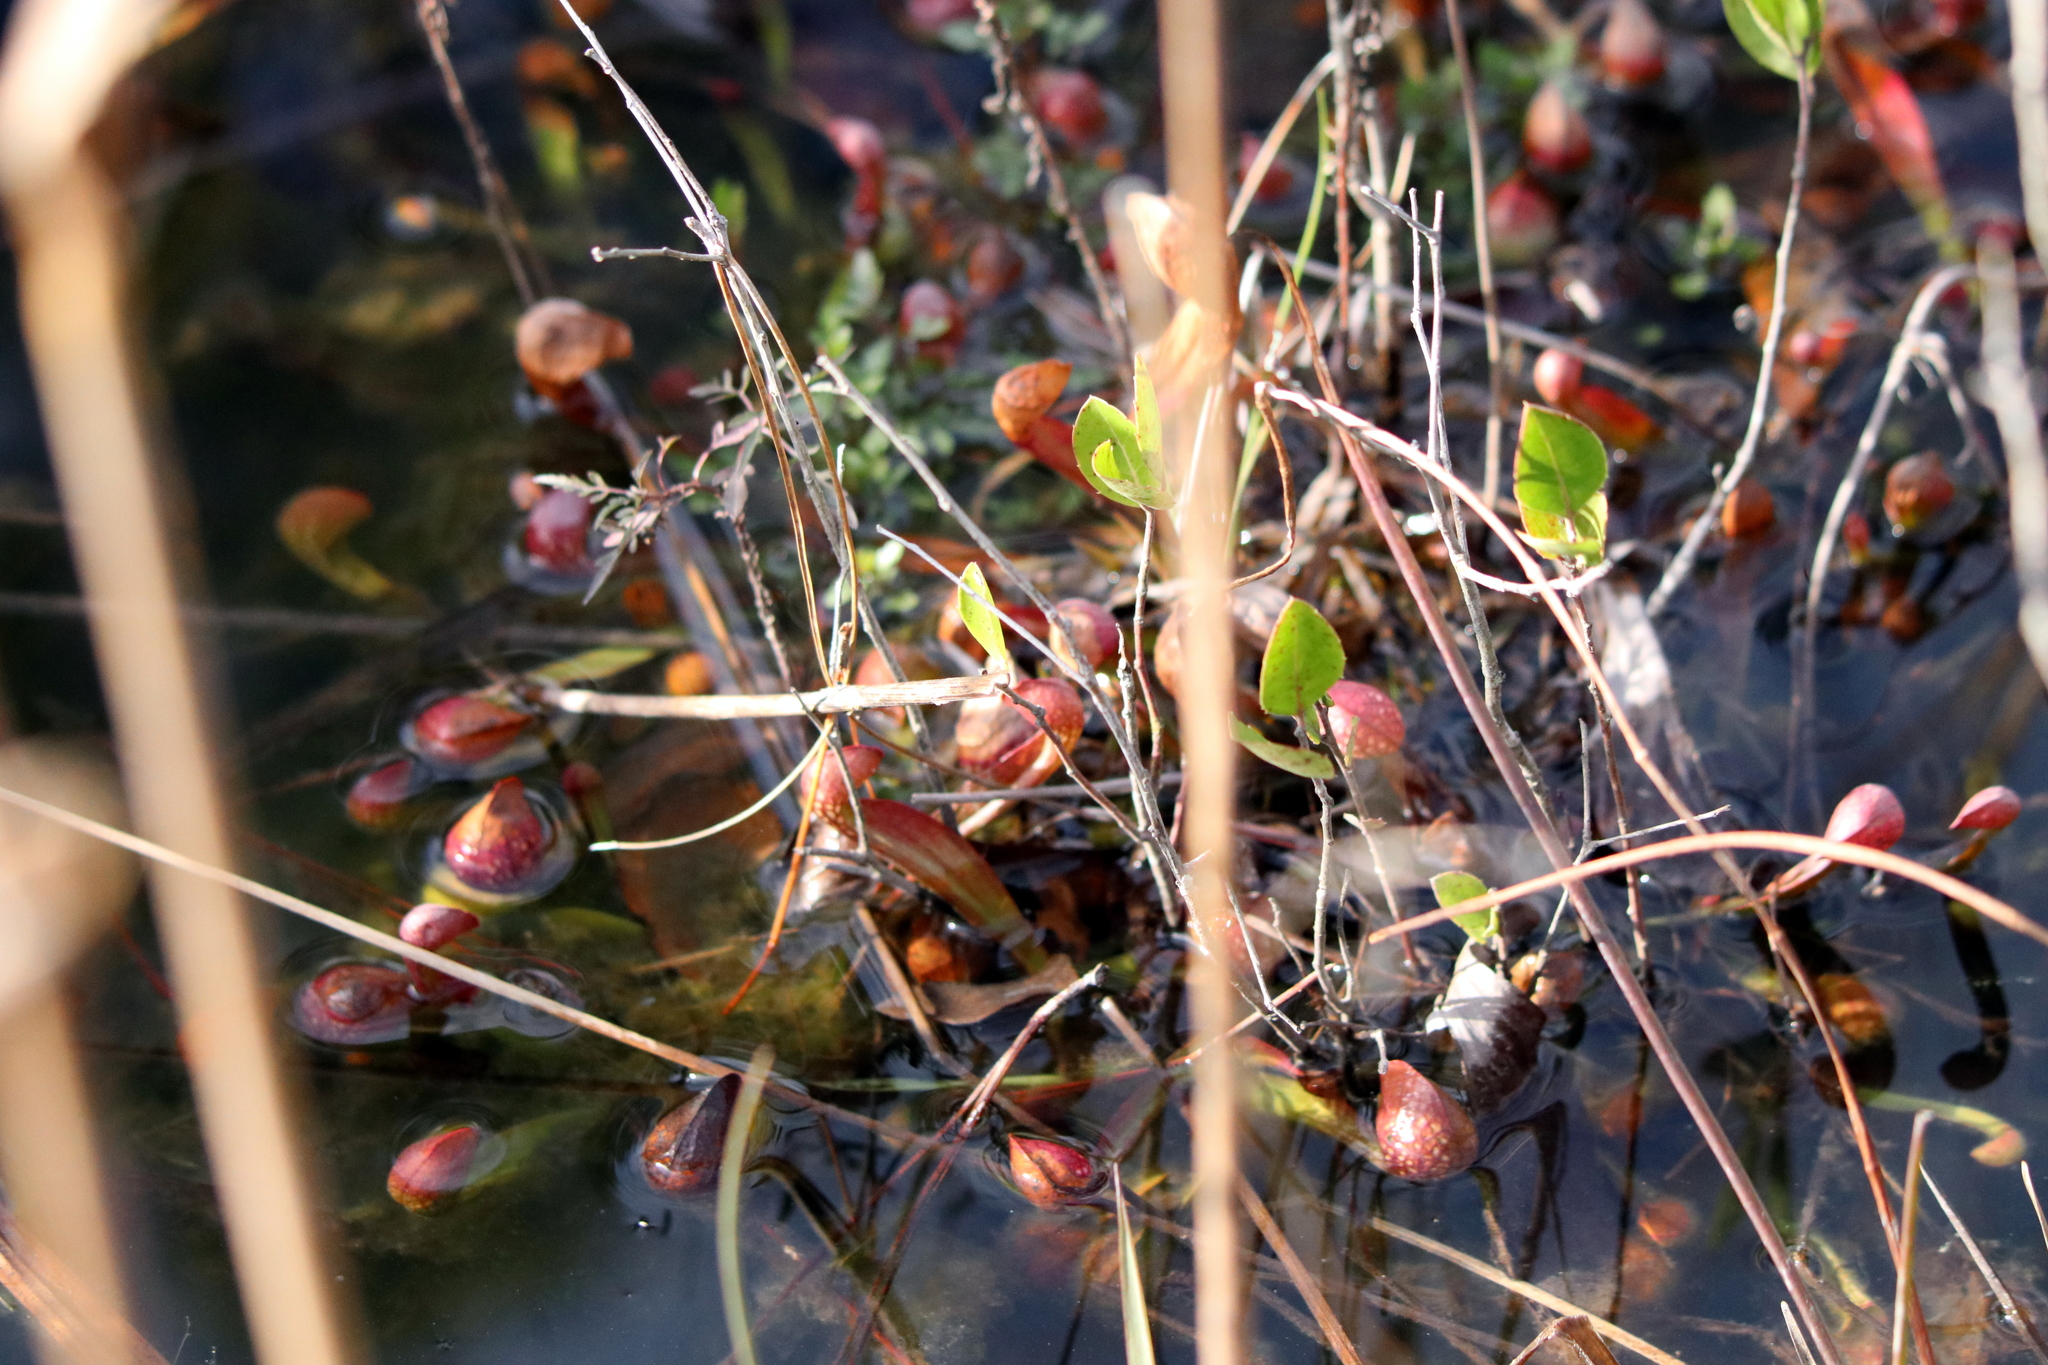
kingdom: Plantae
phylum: Tracheophyta
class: Magnoliopsida
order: Ericales
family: Sarraceniaceae
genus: Sarracenia
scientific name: Sarracenia psittacina
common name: Parrot pitcherplant
